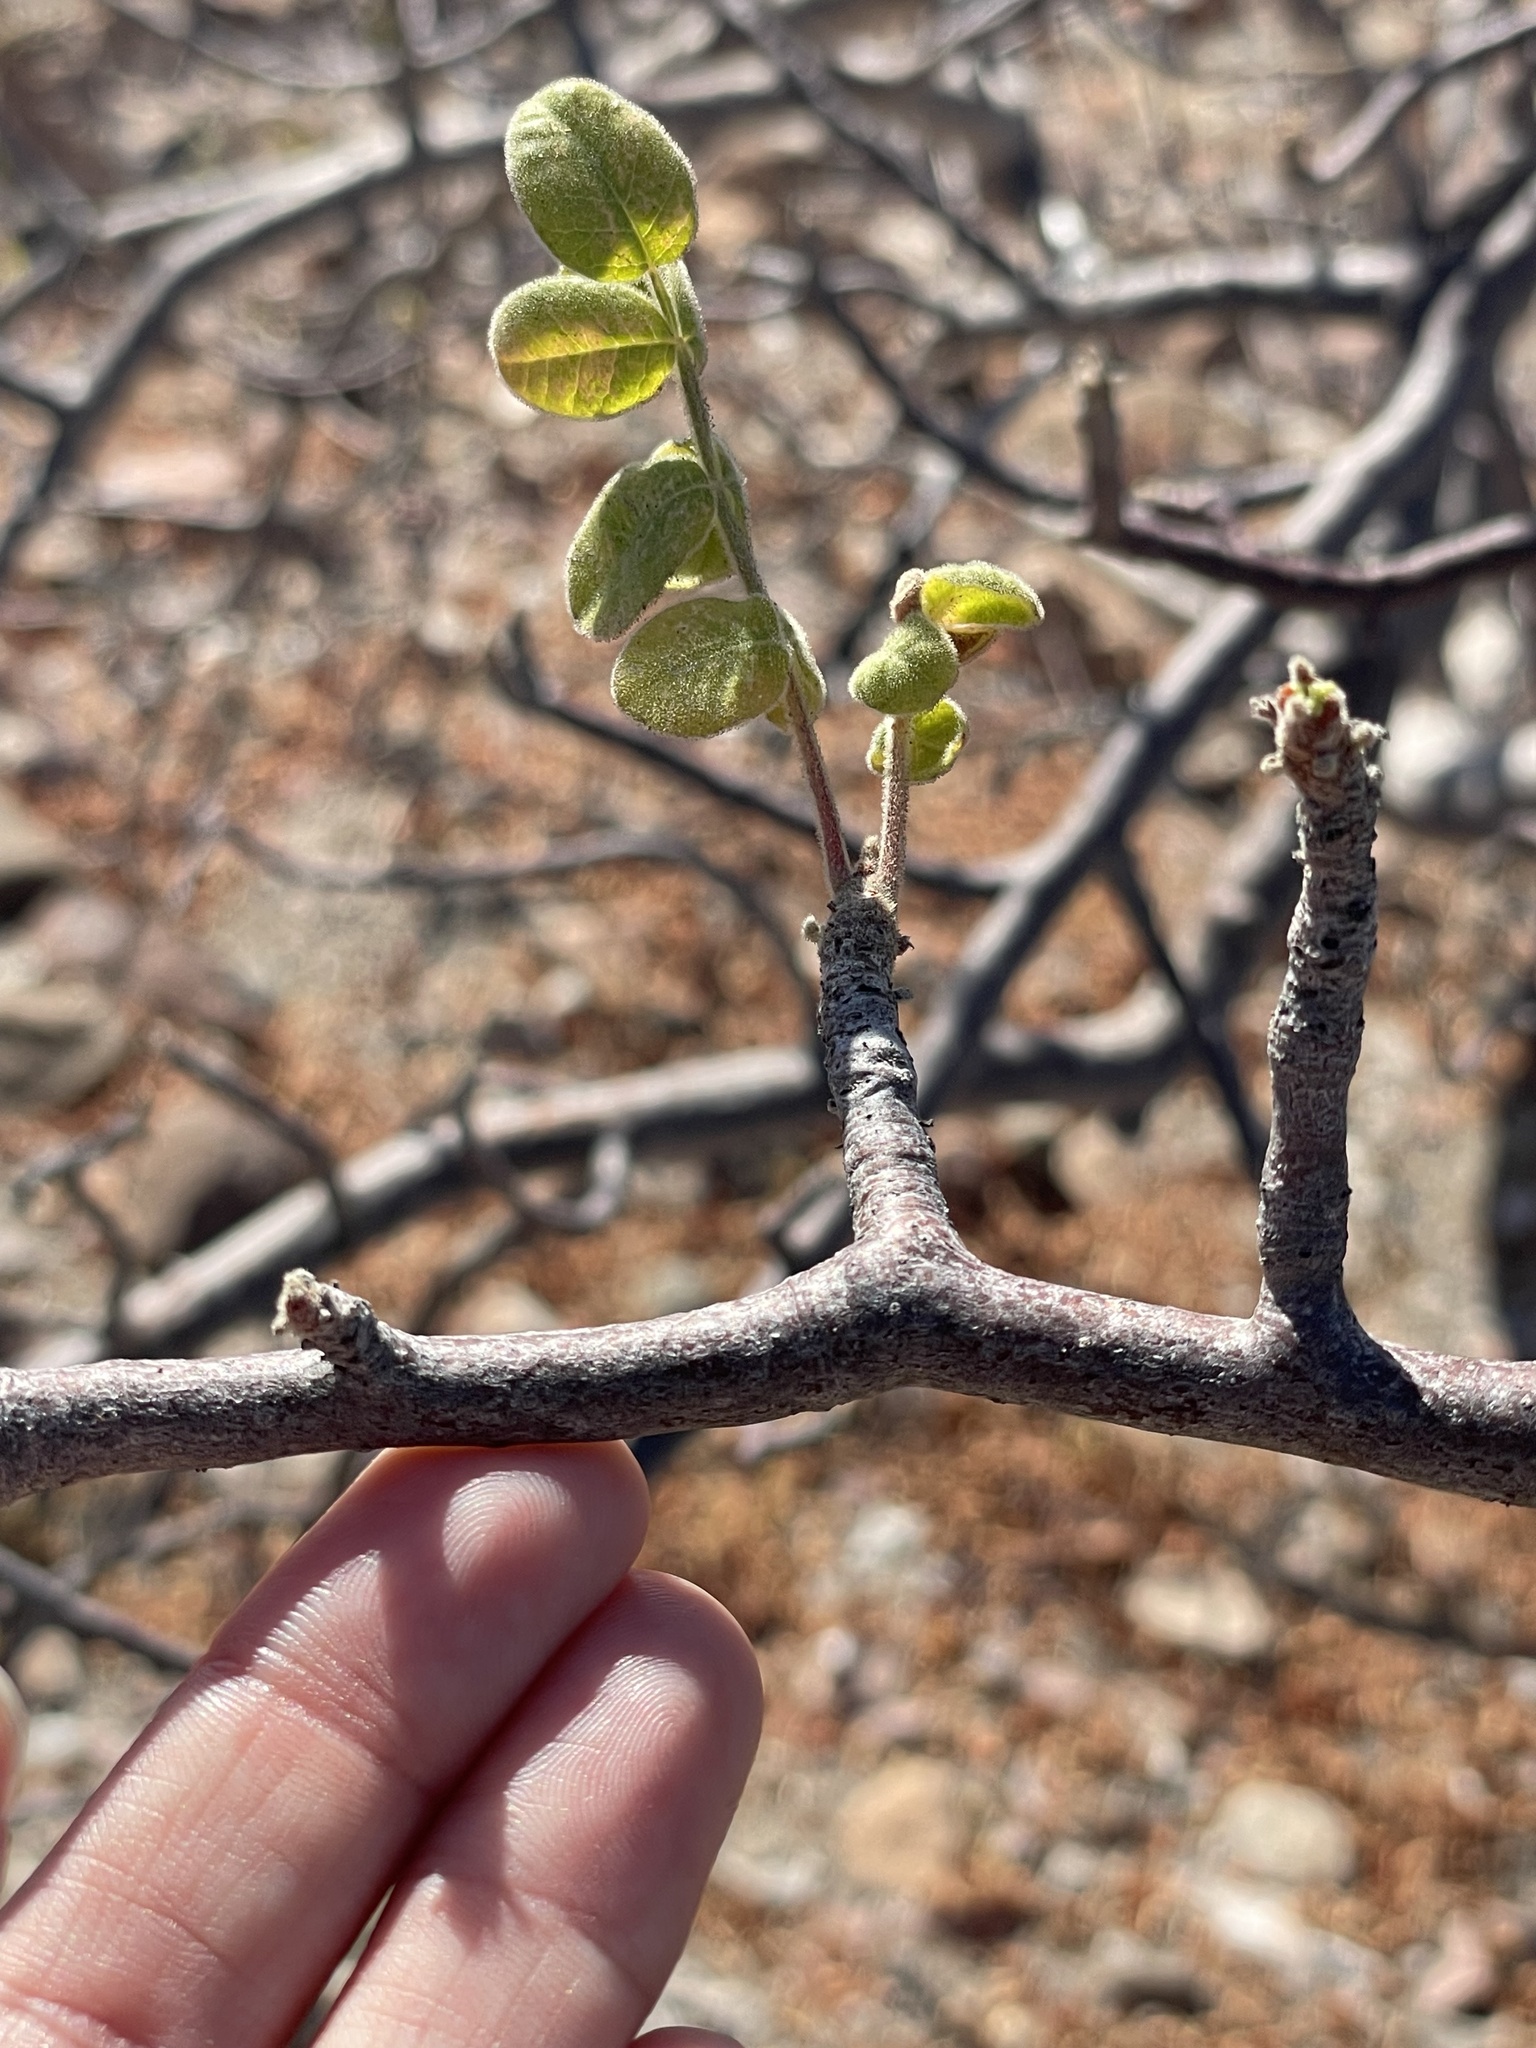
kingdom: Plantae
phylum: Tracheophyta
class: Magnoliopsida
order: Sapindales
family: Anacardiaceae
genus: Cyrtocarpa
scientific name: Cyrtocarpa edulis
